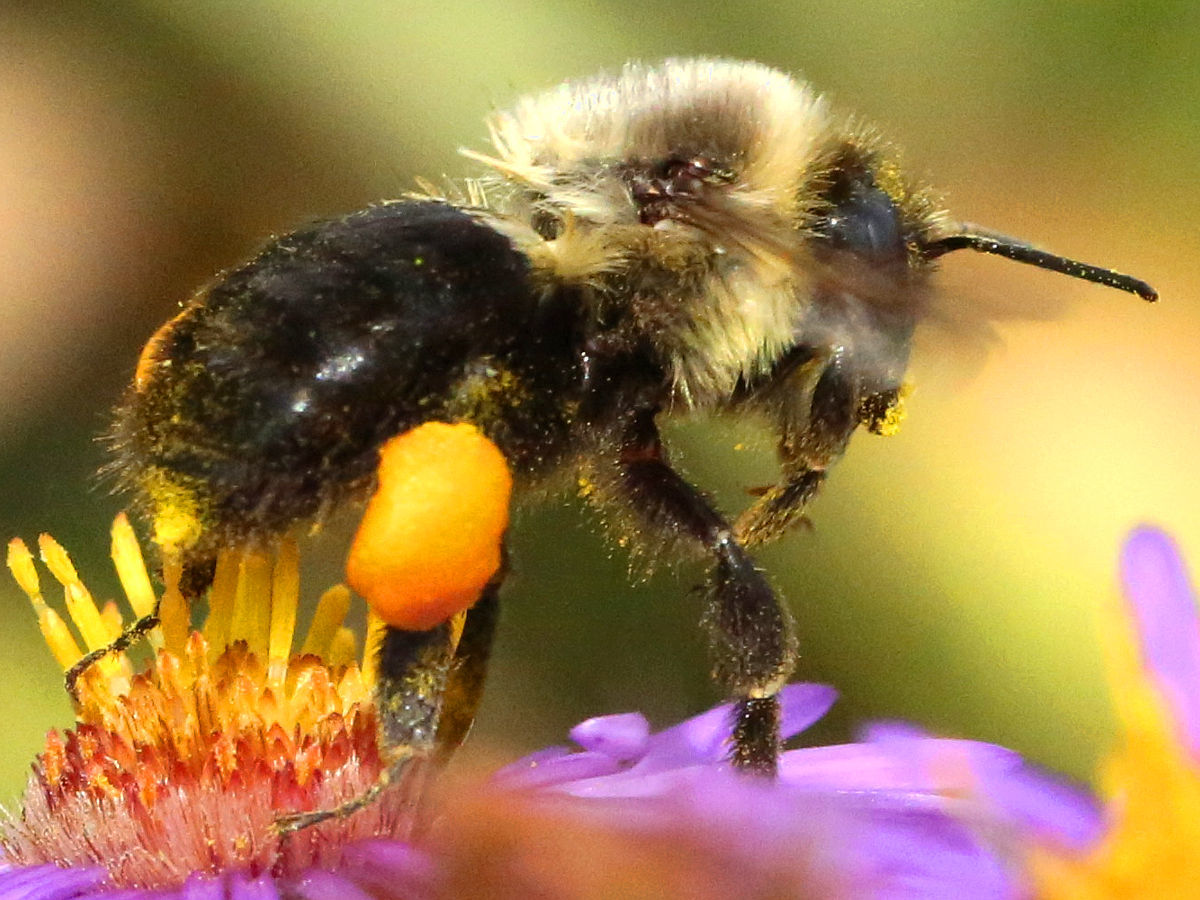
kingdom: Animalia
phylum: Arthropoda
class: Insecta
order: Hymenoptera
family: Apidae
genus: Bombus
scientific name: Bombus impatiens
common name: Common eastern bumble bee
